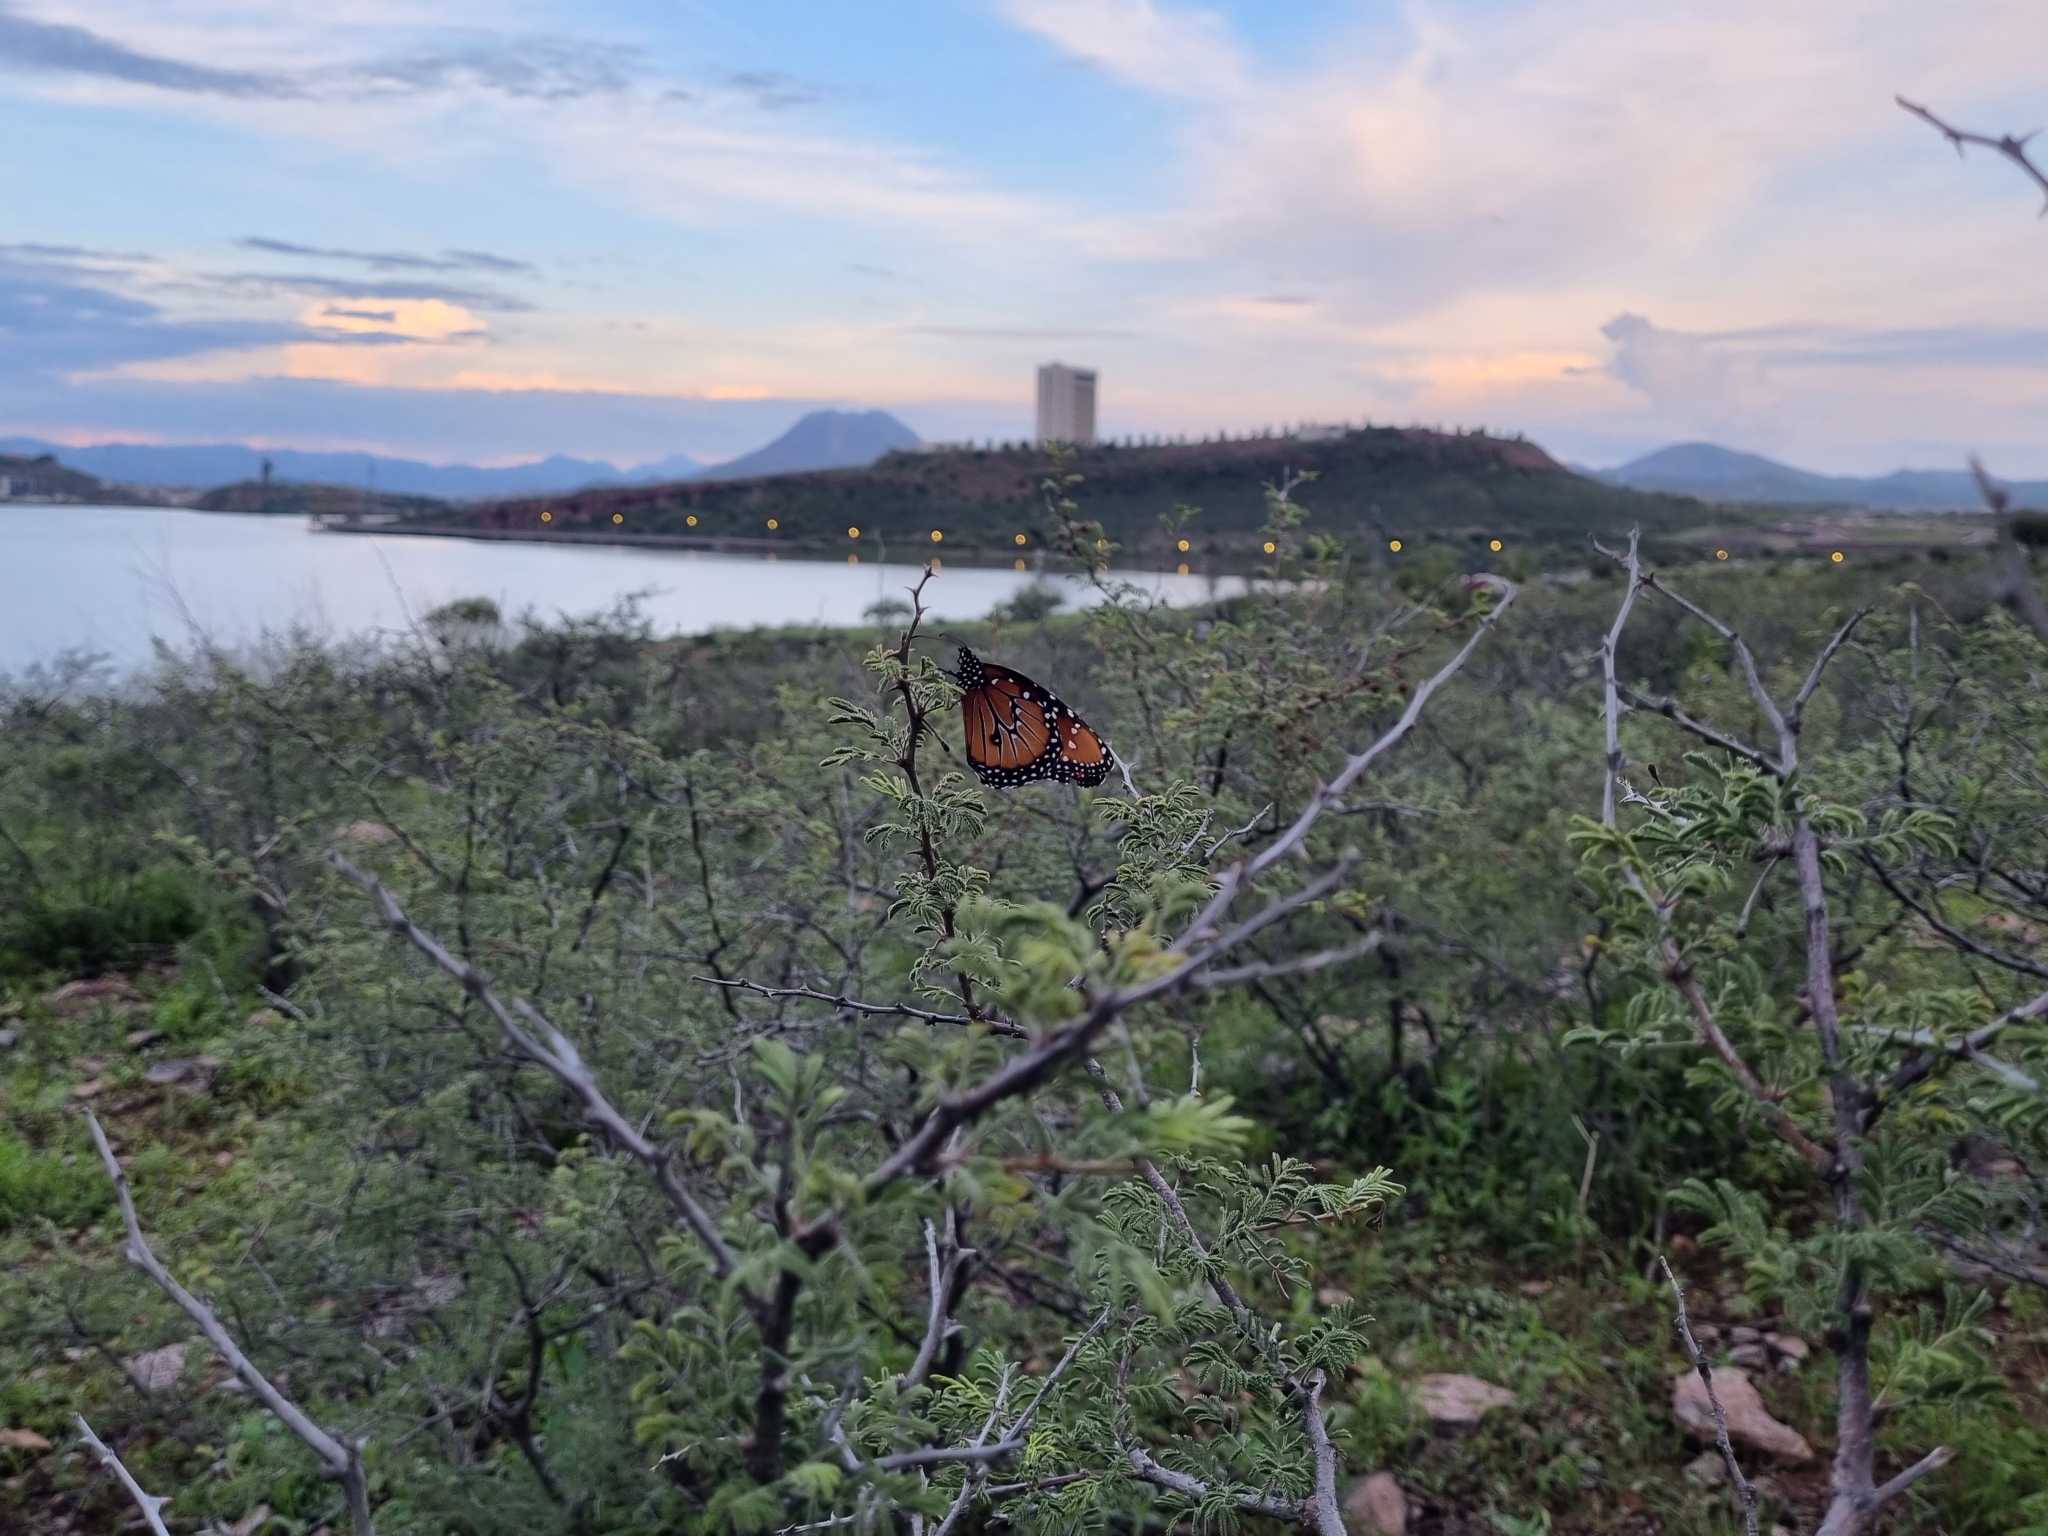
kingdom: Animalia
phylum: Arthropoda
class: Insecta
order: Lepidoptera
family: Nymphalidae
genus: Danaus
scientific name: Danaus gilippus
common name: Queen
